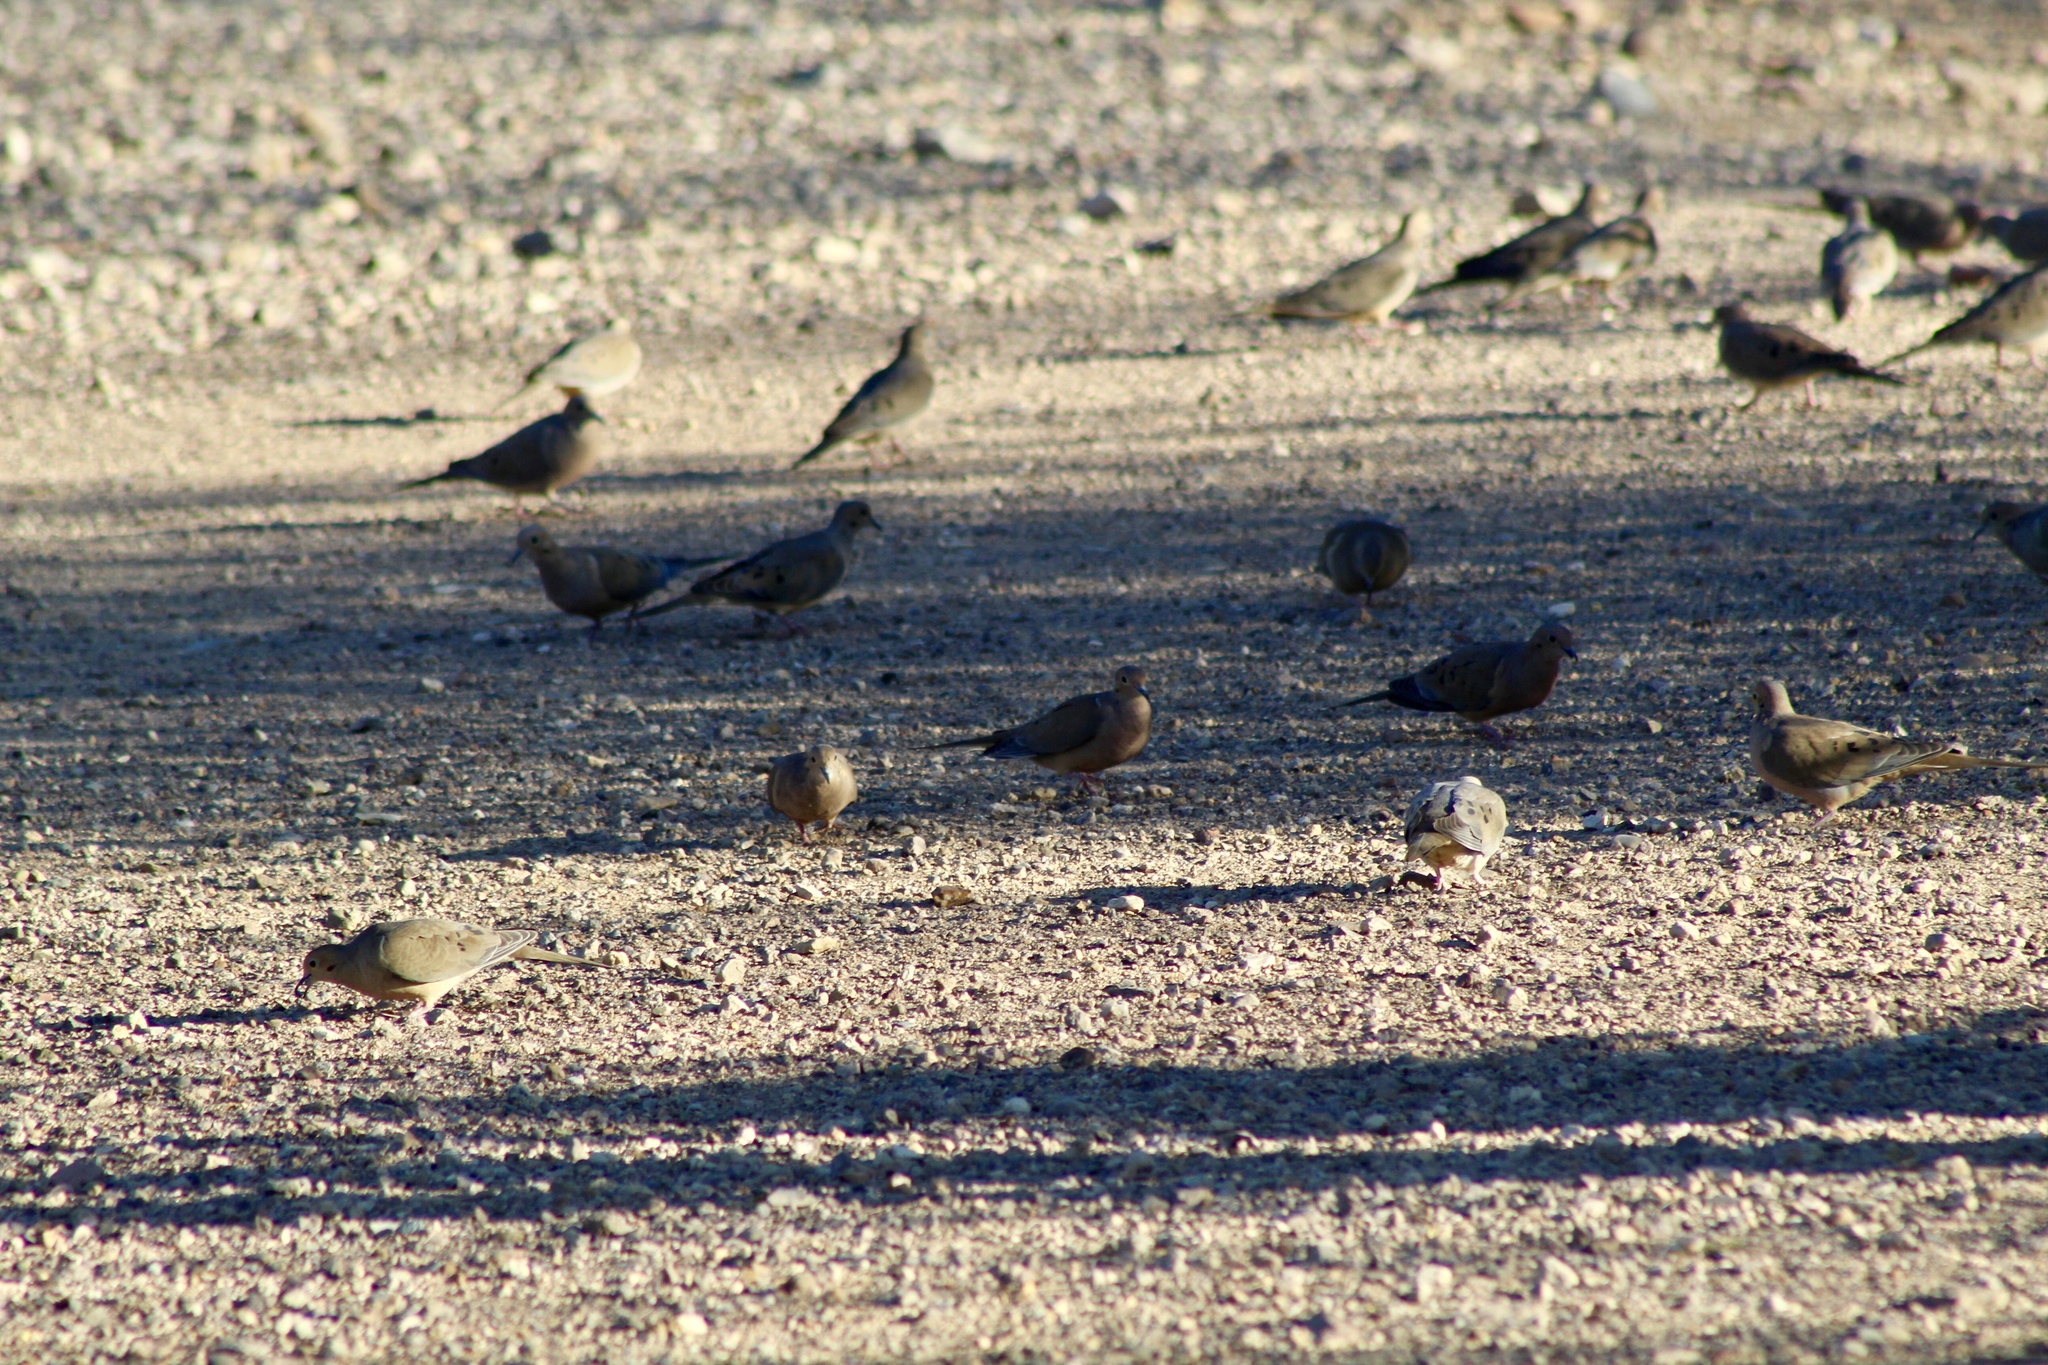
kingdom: Animalia
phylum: Chordata
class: Aves
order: Columbiformes
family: Columbidae
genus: Zenaida
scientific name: Zenaida macroura
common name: Mourning dove
